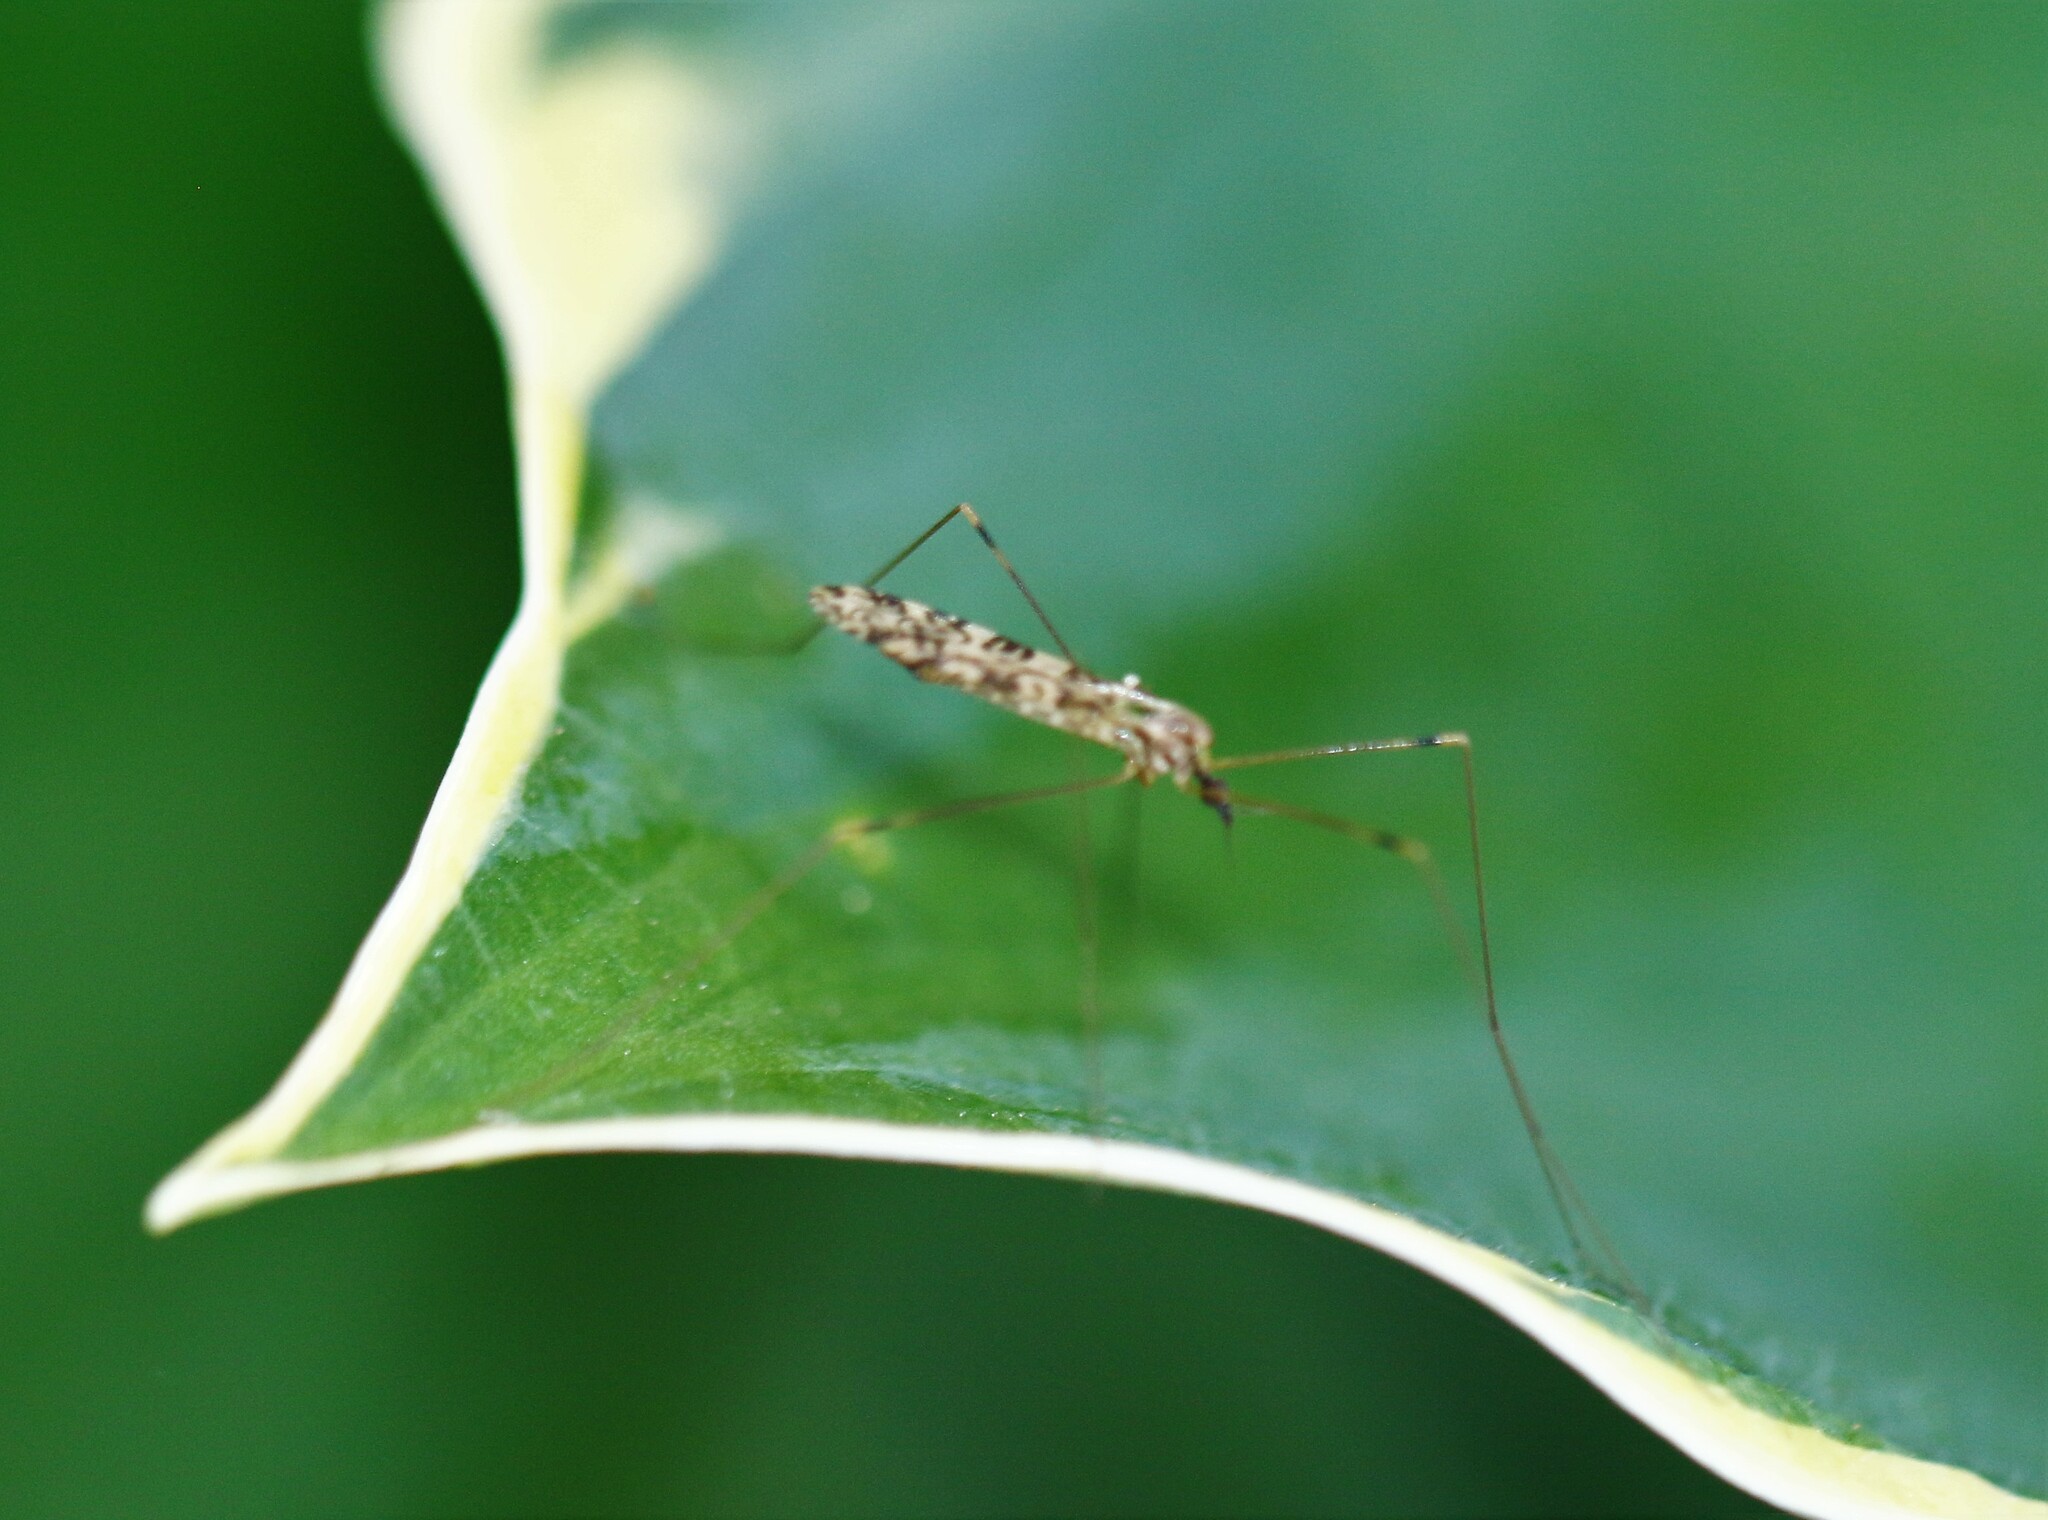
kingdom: Animalia
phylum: Arthropoda
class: Insecta
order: Diptera
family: Limoniidae
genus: Limonia
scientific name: Limonia annulata
